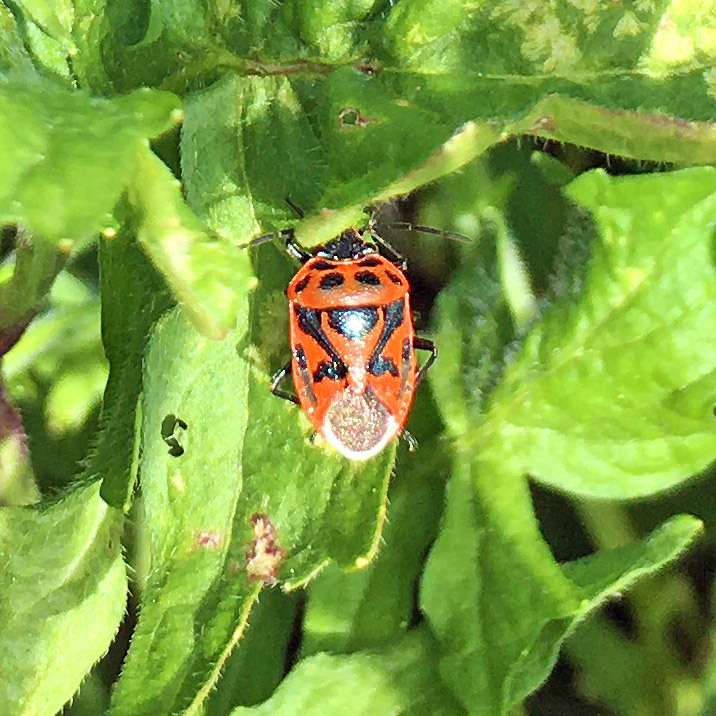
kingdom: Animalia
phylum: Arthropoda
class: Insecta
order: Hemiptera
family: Pentatomidae
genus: Eurydema
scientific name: Eurydema ornata
